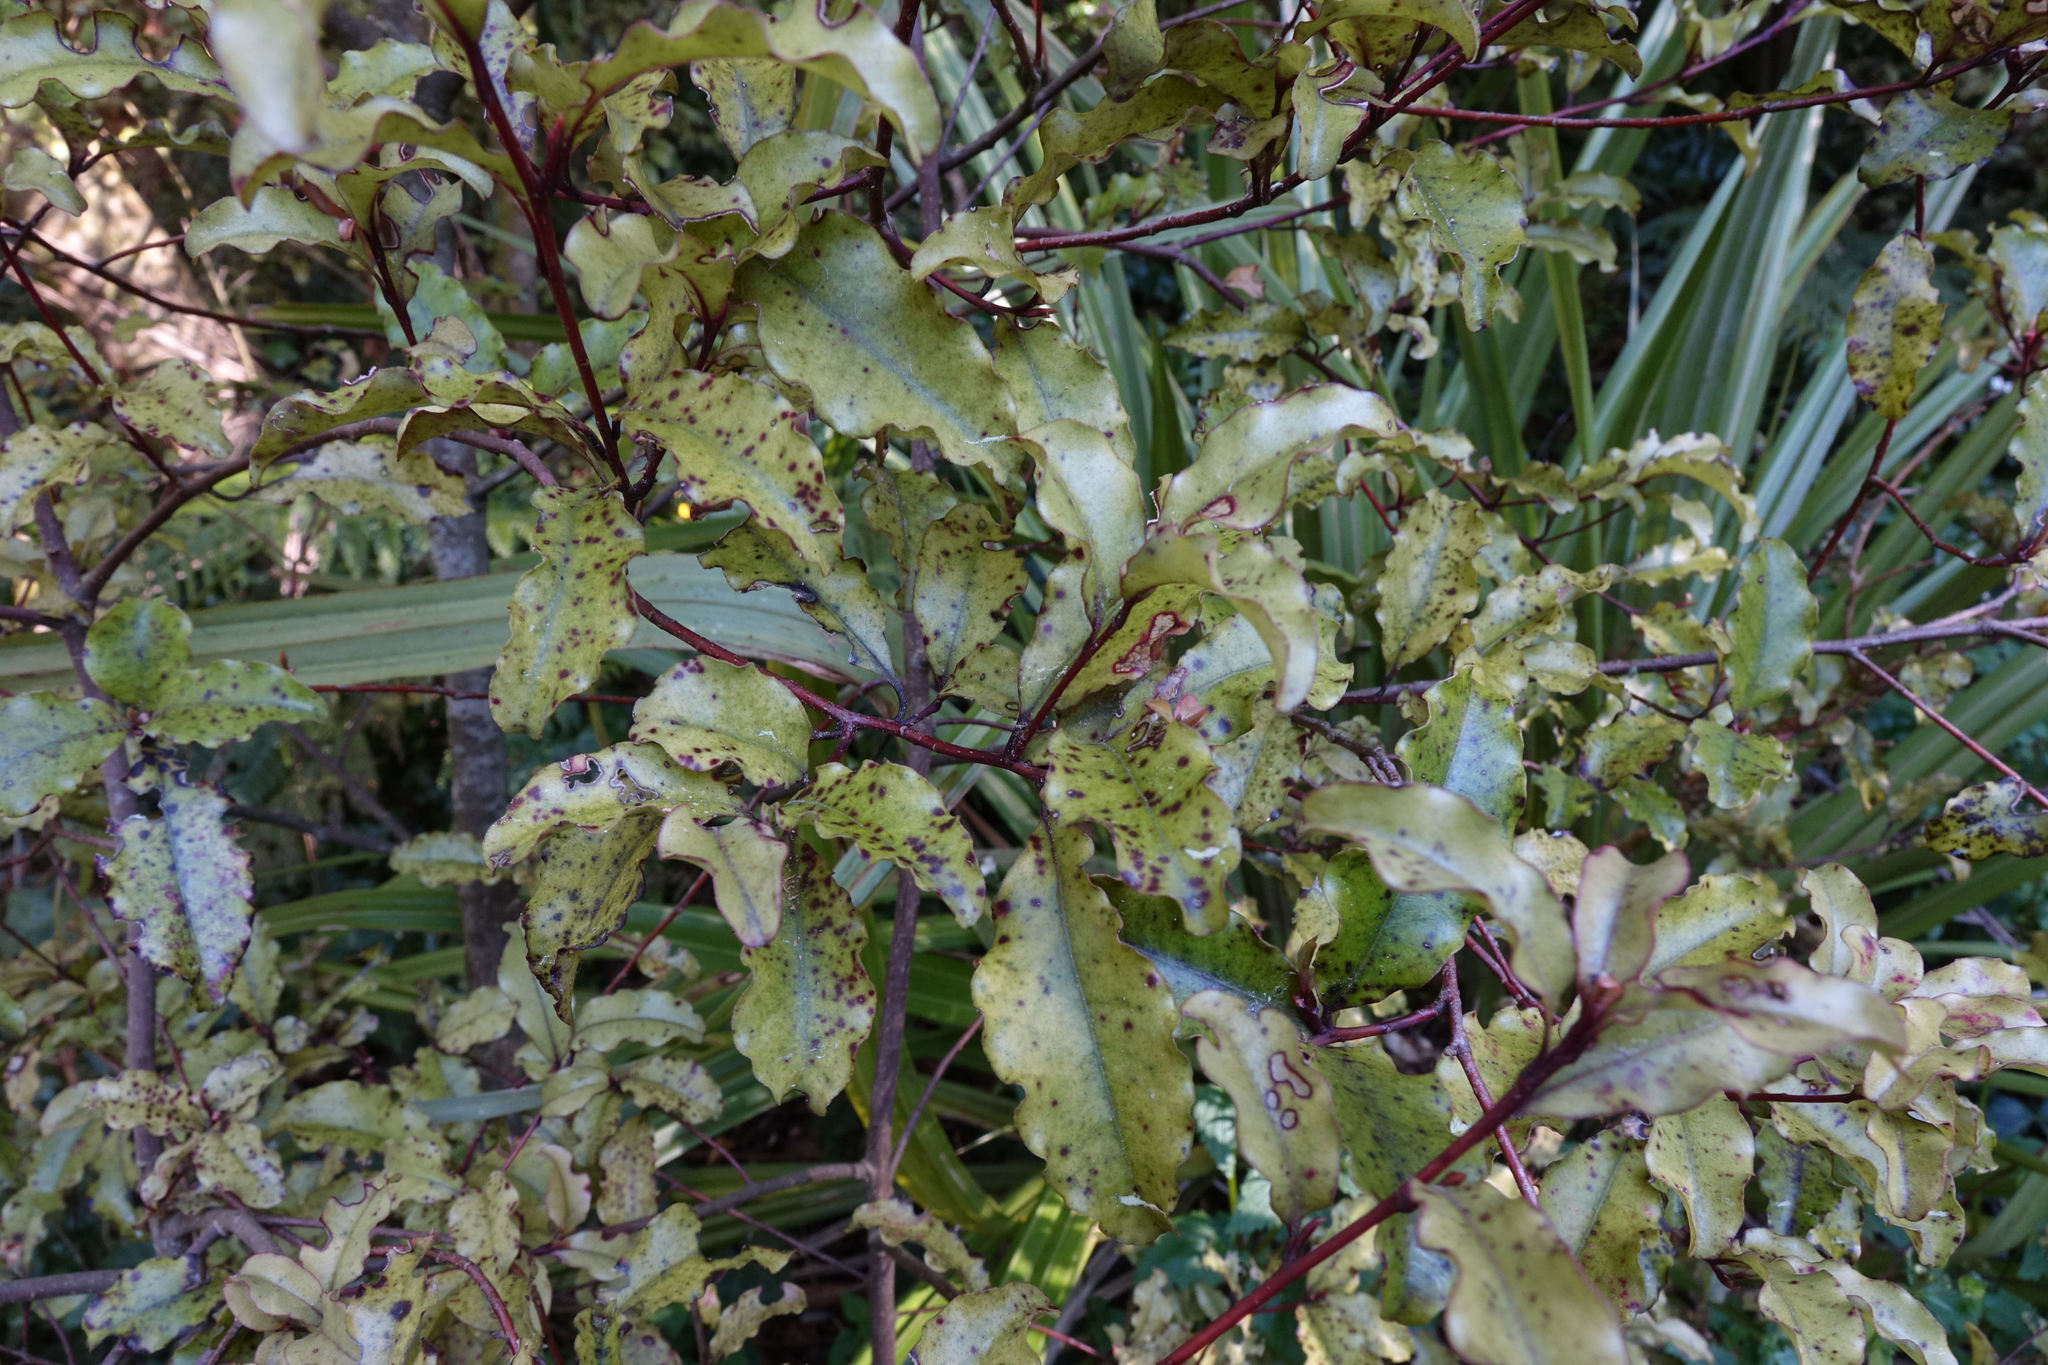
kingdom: Plantae
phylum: Tracheophyta
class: Magnoliopsida
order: Ericales
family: Primulaceae
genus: Myrsine
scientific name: Myrsine australis
